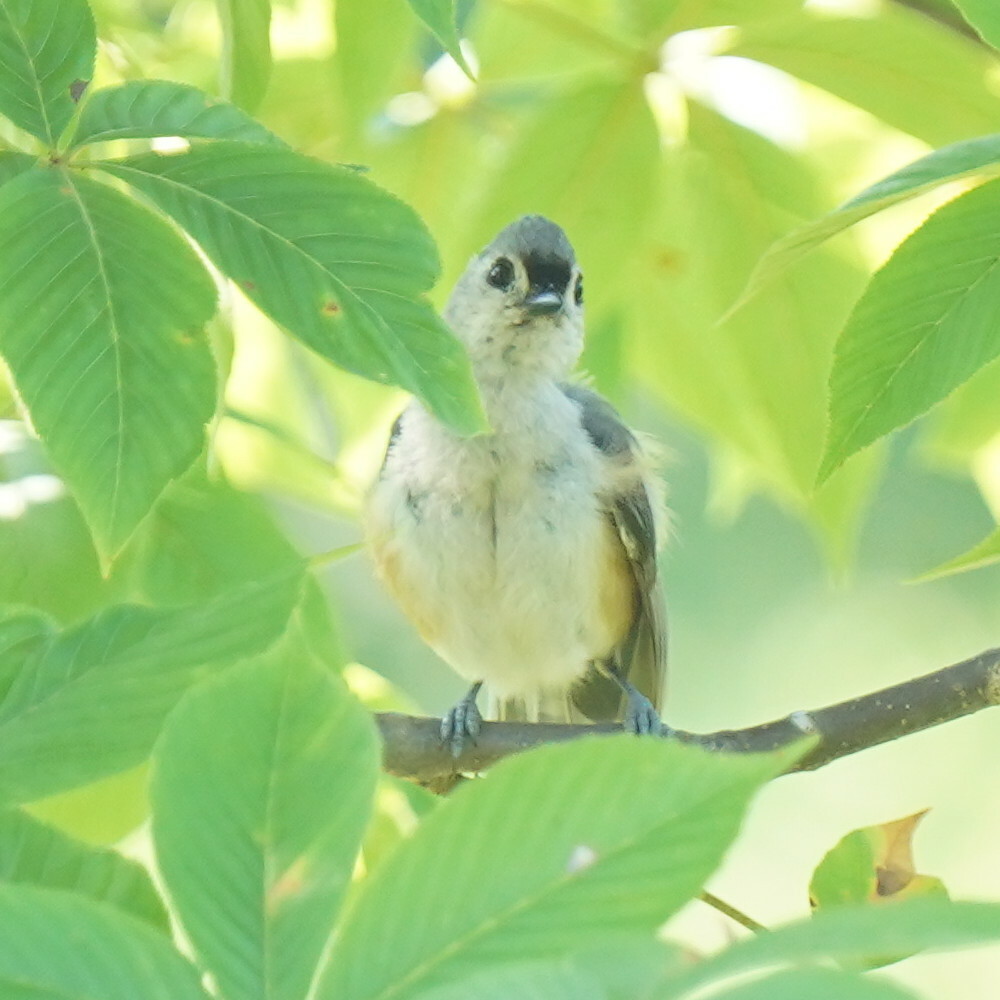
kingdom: Animalia
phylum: Chordata
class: Aves
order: Passeriformes
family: Paridae
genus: Baeolophus
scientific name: Baeolophus bicolor
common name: Tufted titmouse
